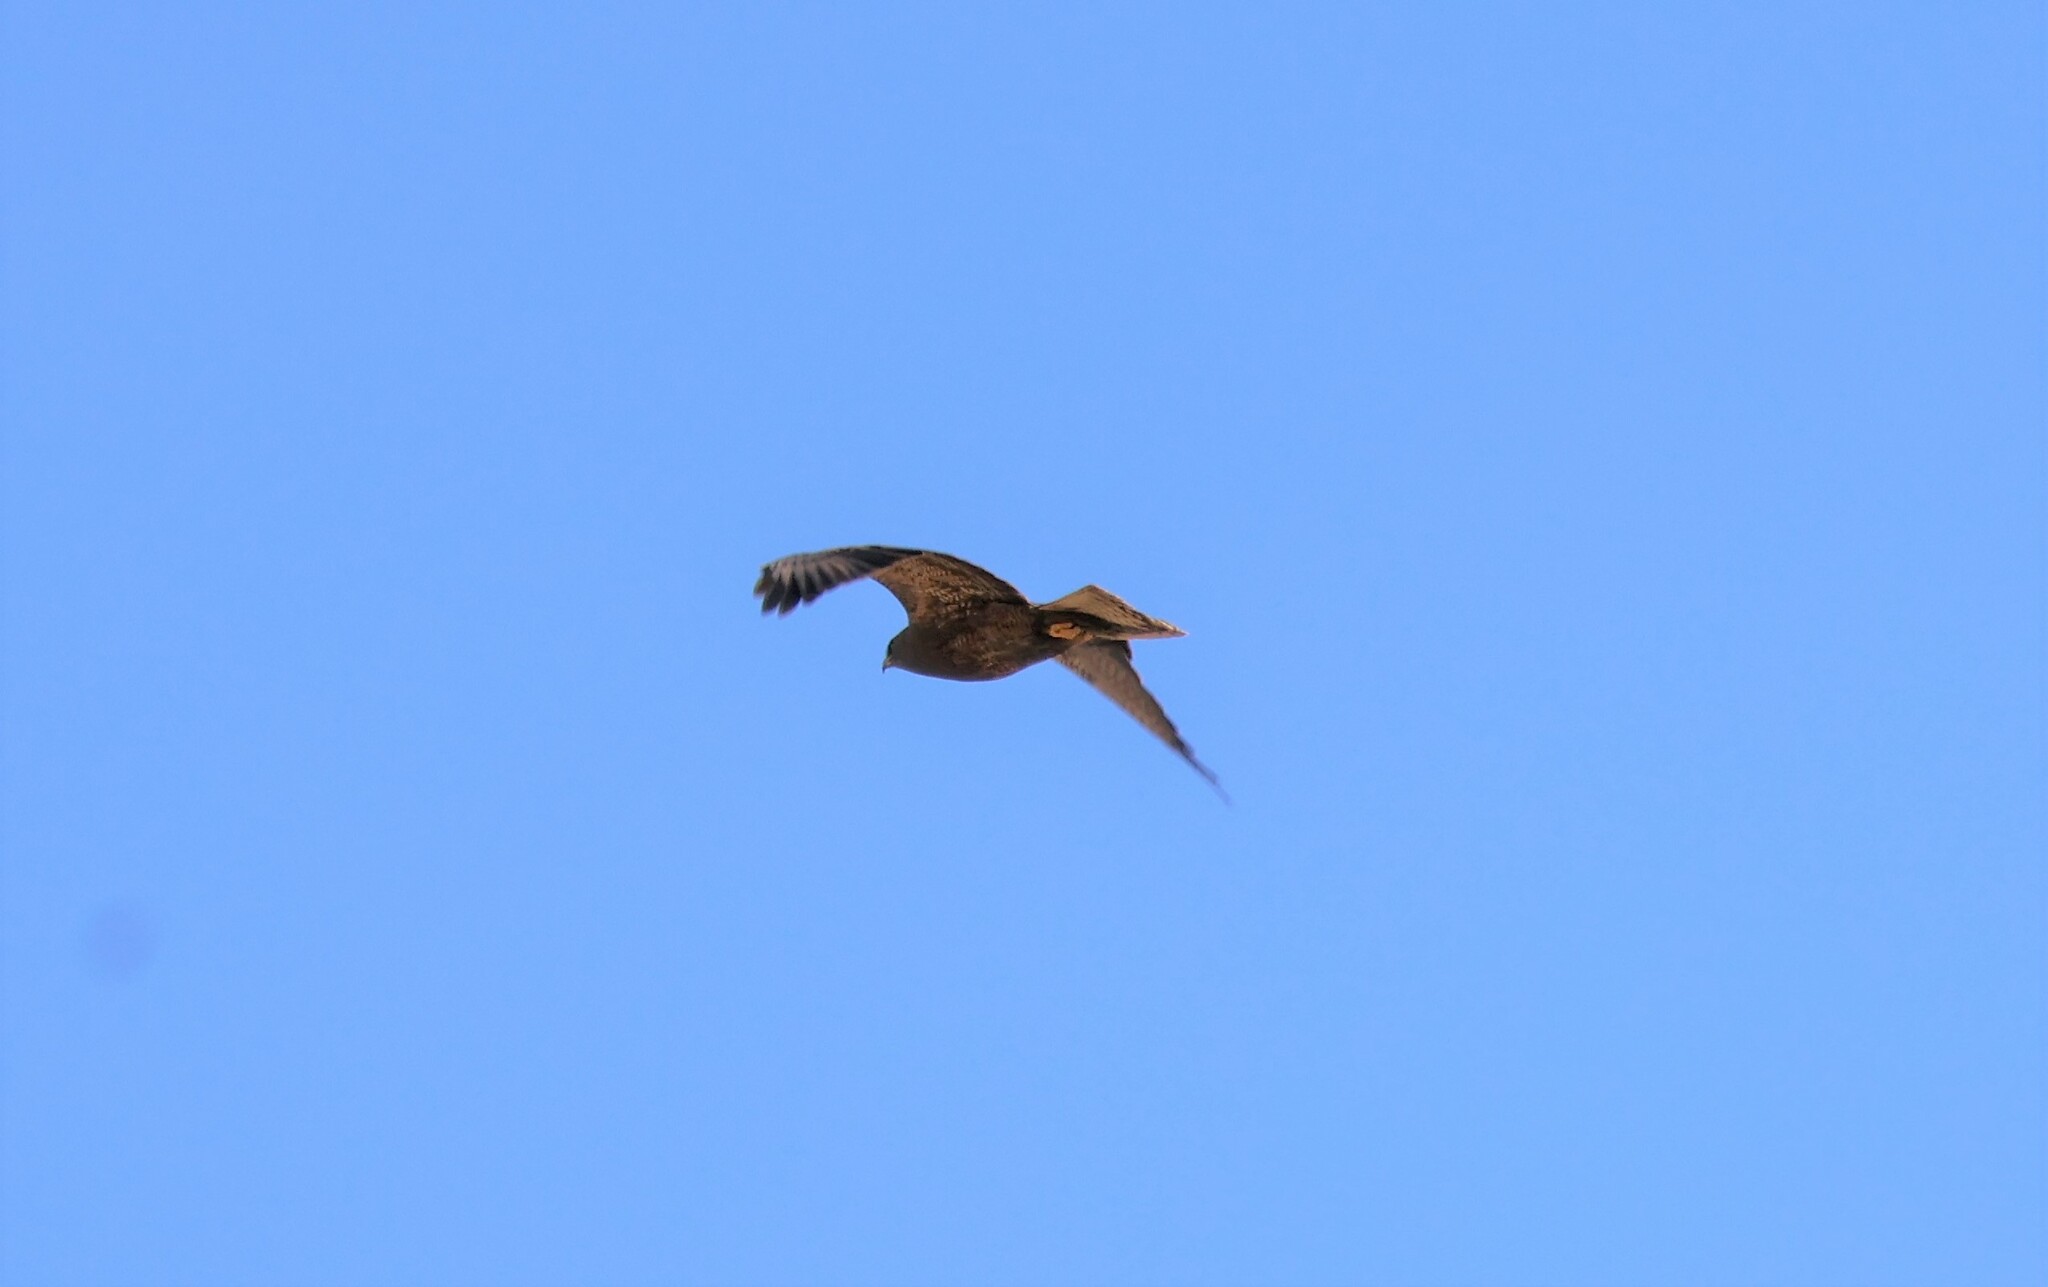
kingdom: Animalia
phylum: Chordata
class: Aves
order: Accipitriformes
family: Accipitridae
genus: Buteo
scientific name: Buteo swainsoni
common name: Swainson's hawk
